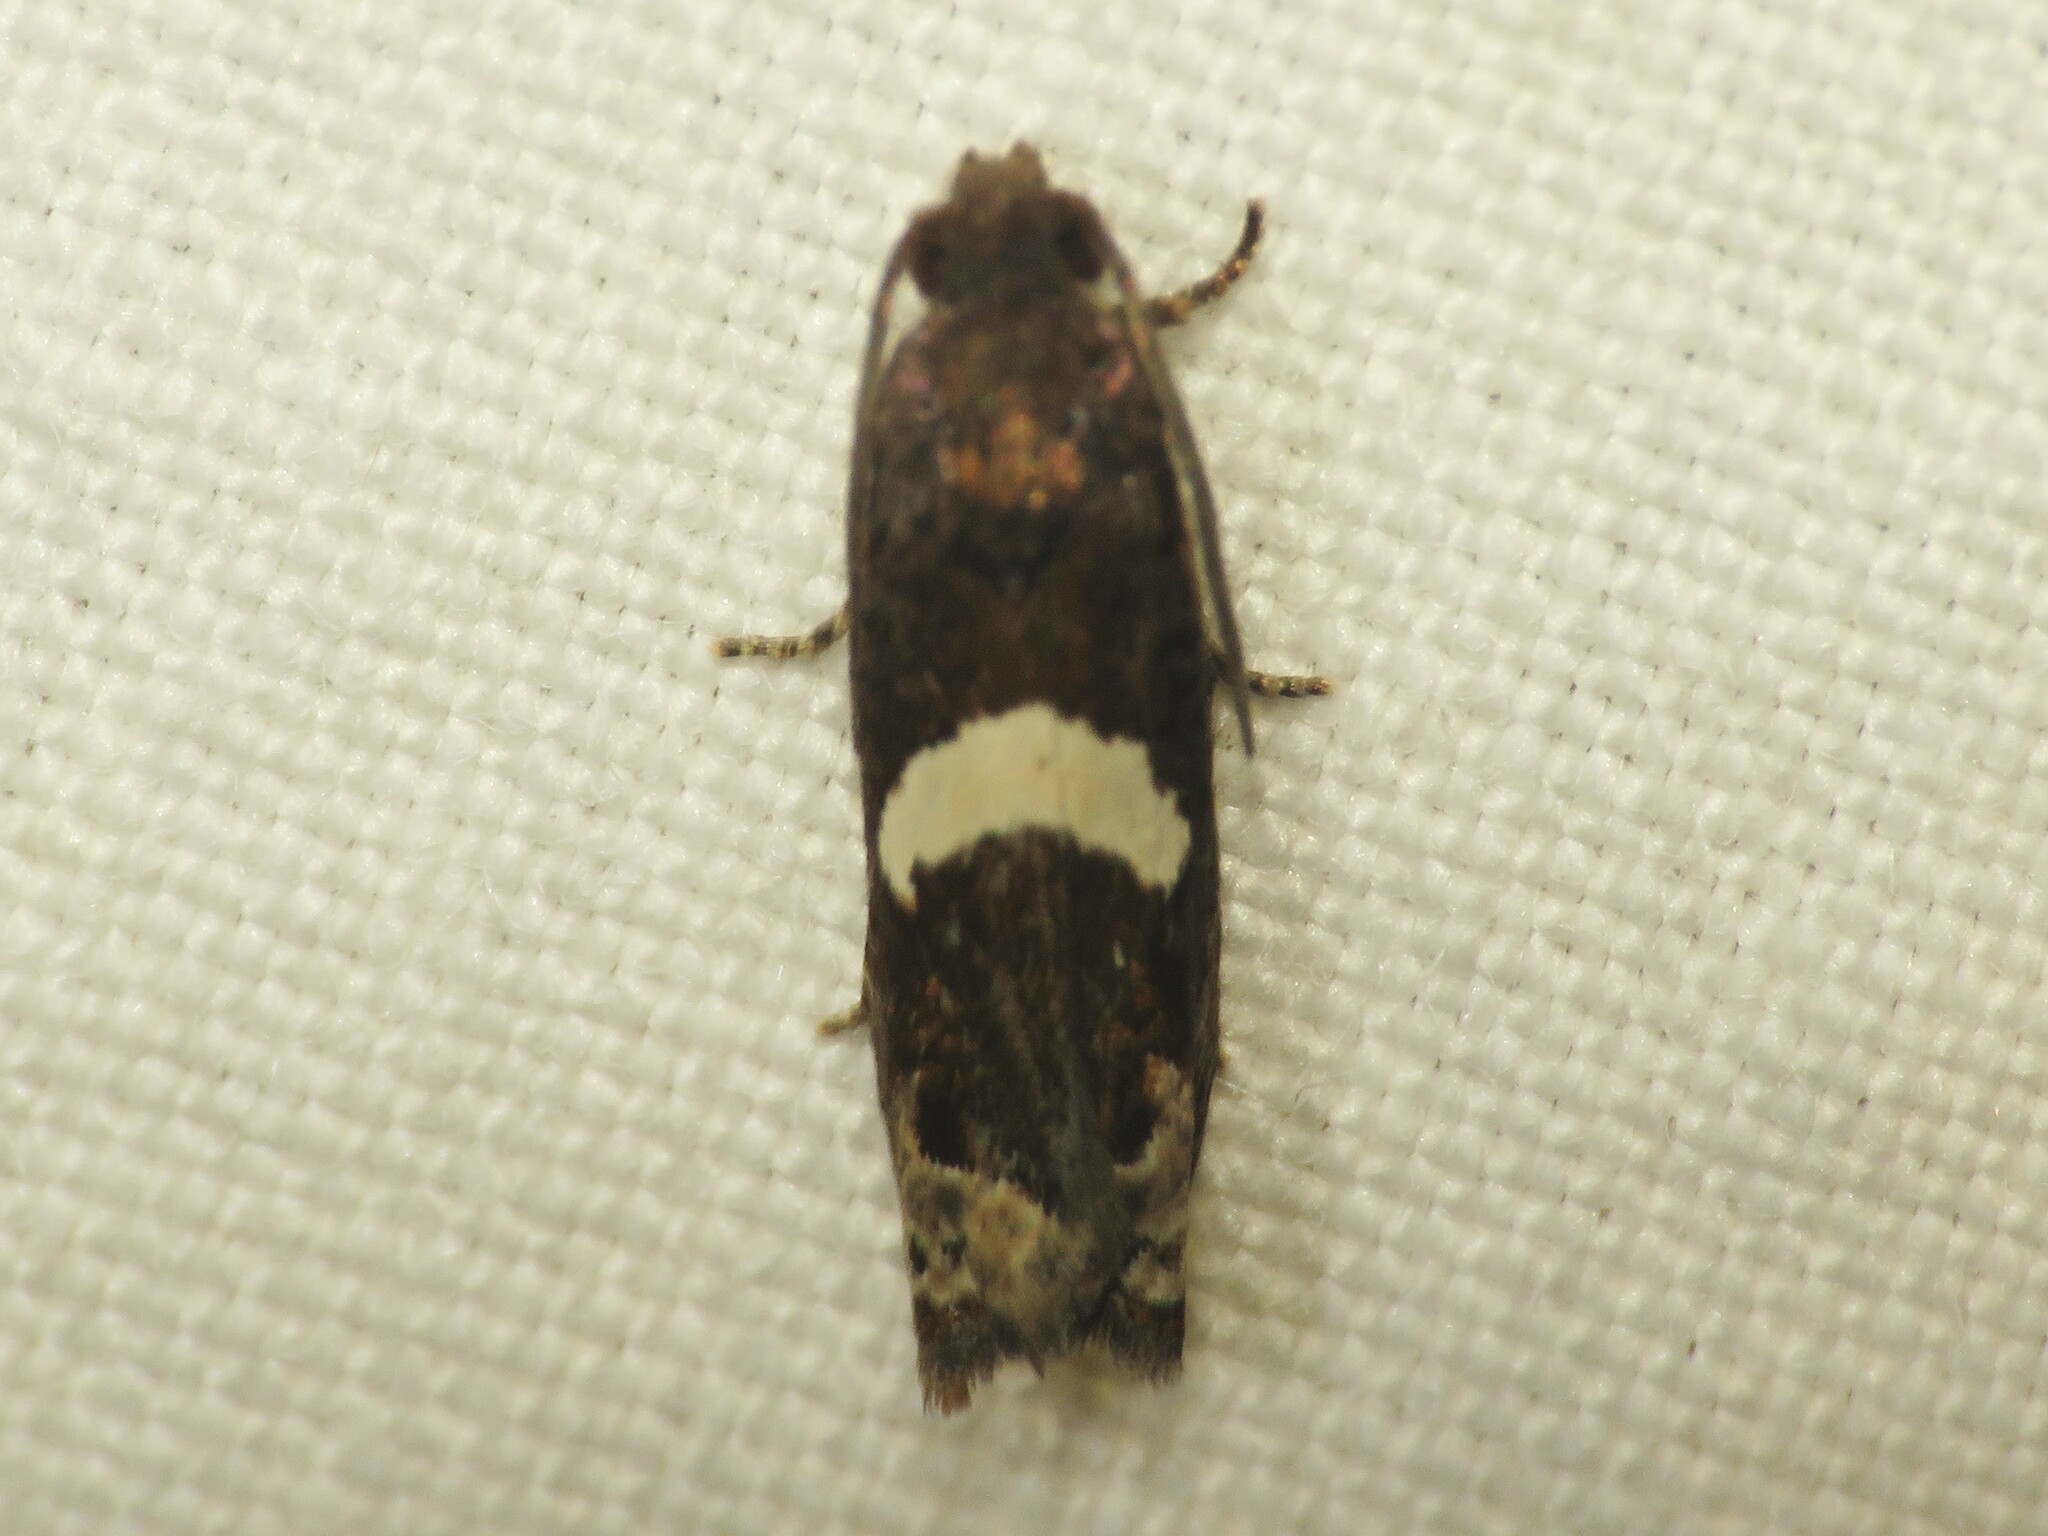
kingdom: Animalia
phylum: Arthropoda
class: Insecta
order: Lepidoptera
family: Tortricidae
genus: Epiblema
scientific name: Epiblema otiosana
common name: Bidens borer moth
